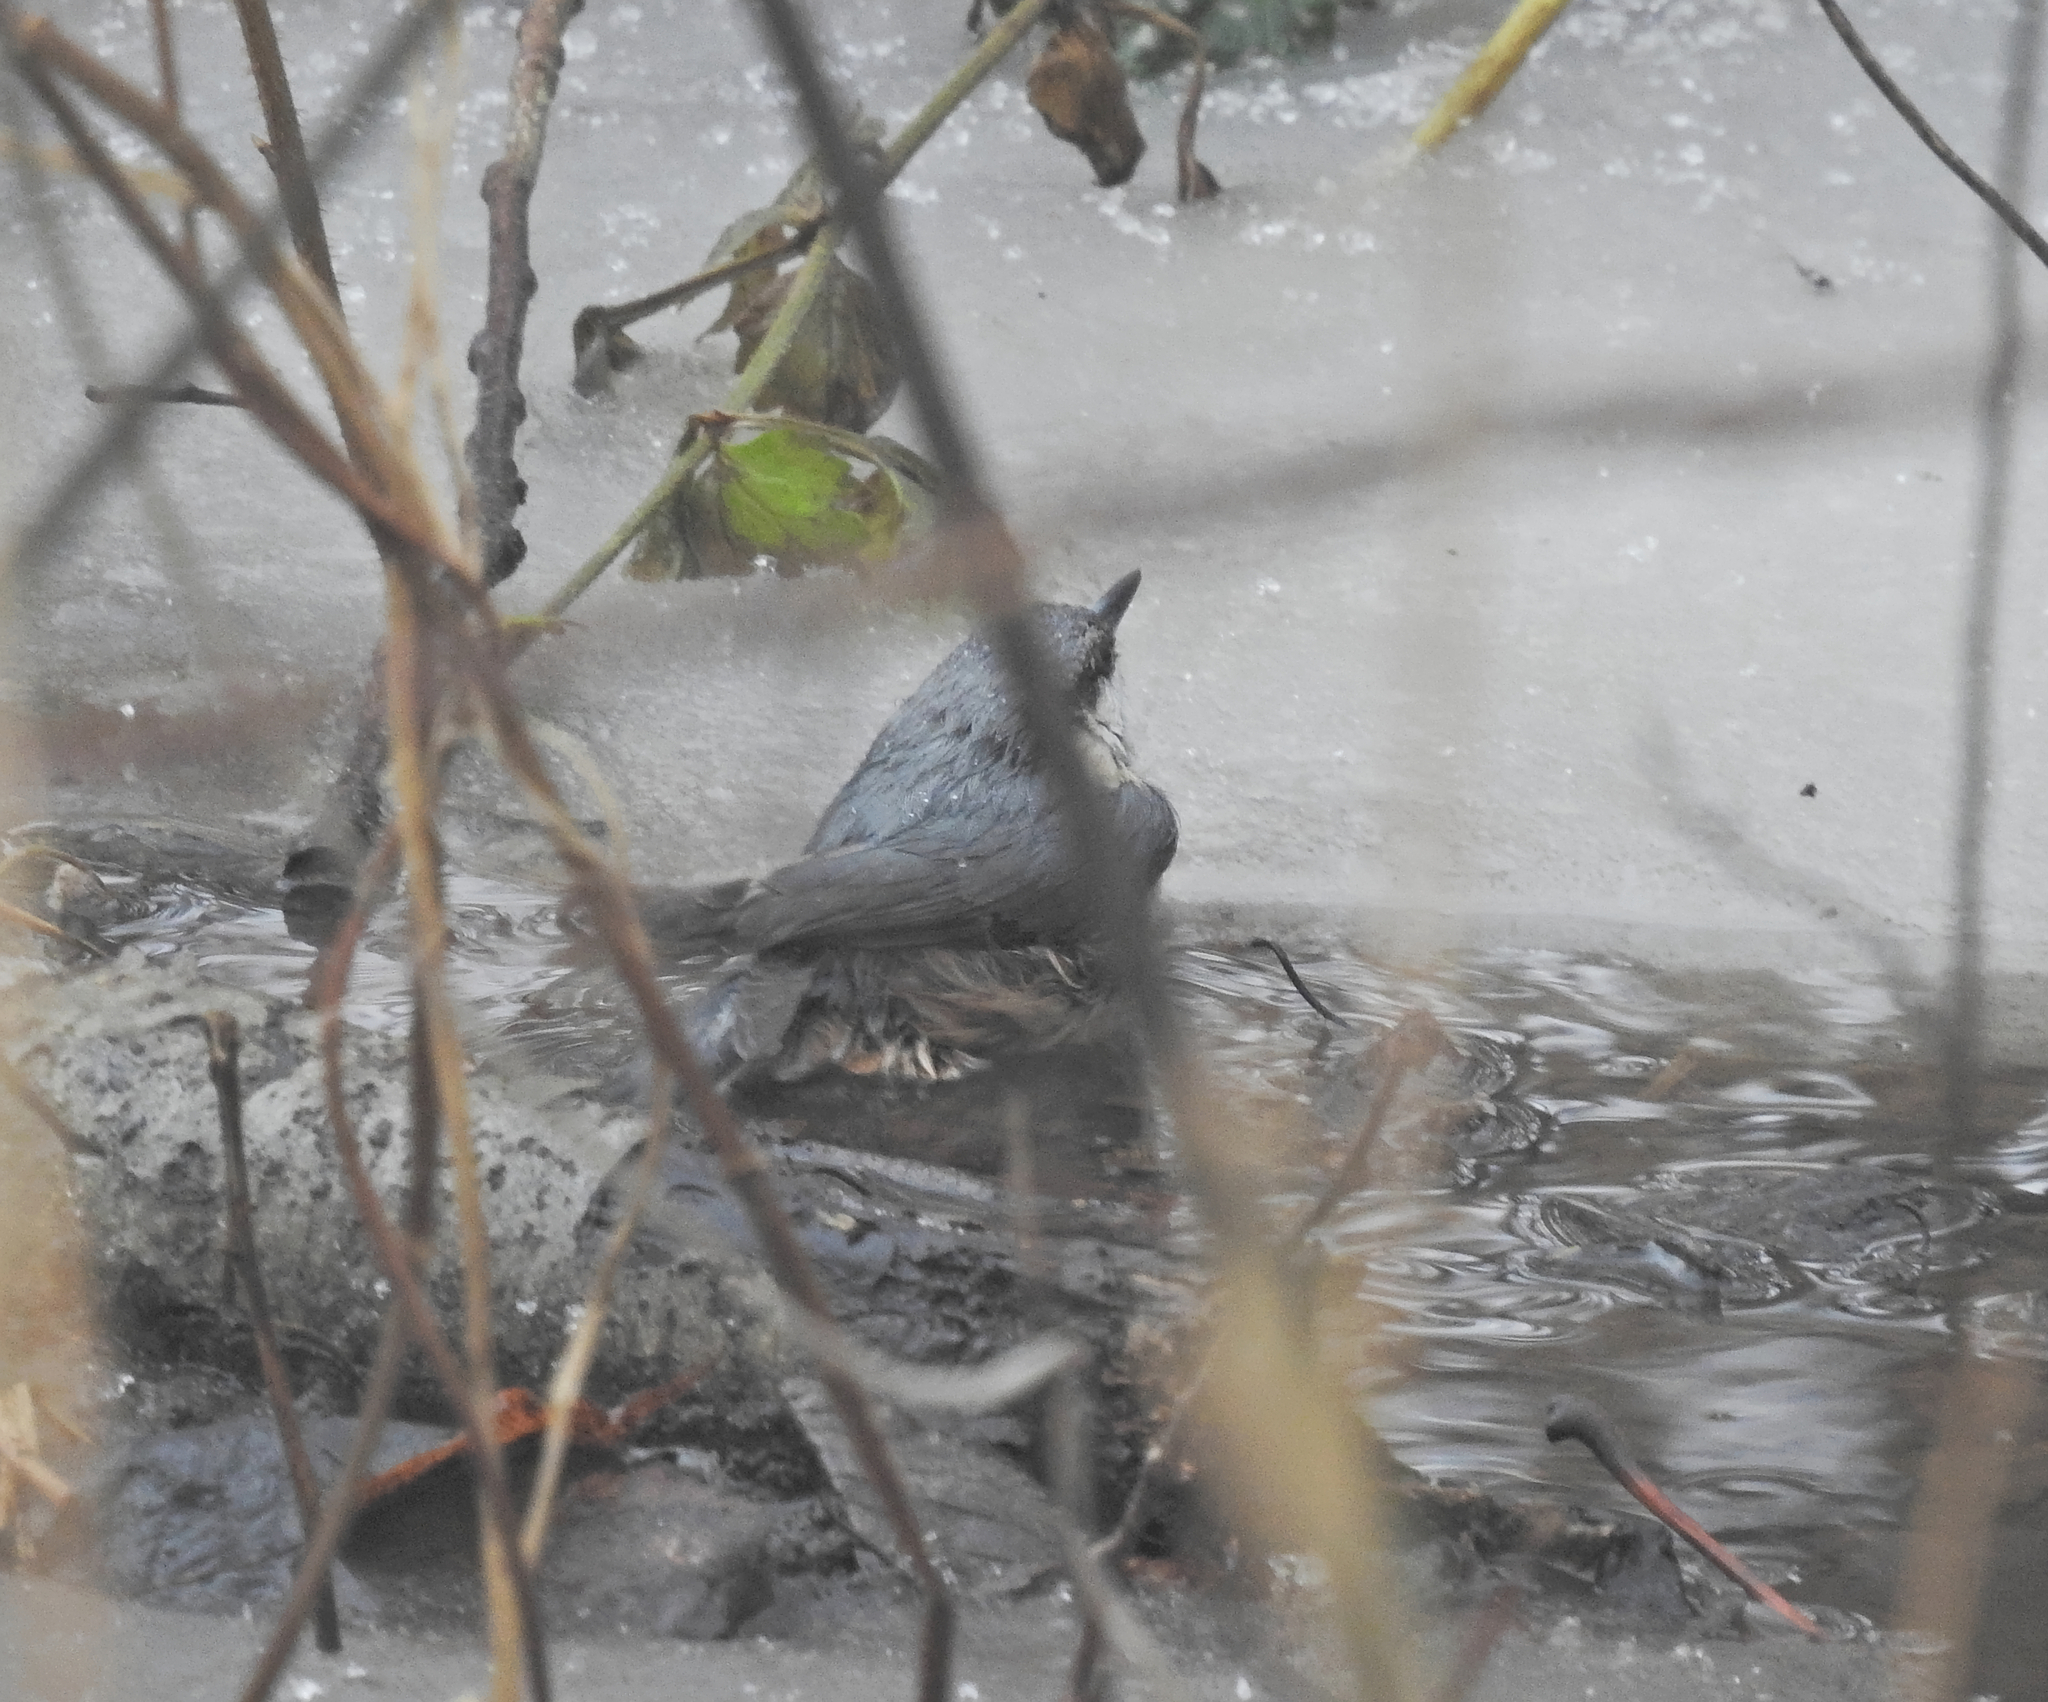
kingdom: Animalia
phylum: Chordata
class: Aves
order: Passeriformes
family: Sittidae
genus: Sitta
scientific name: Sitta europaea
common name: Eurasian nuthatch
